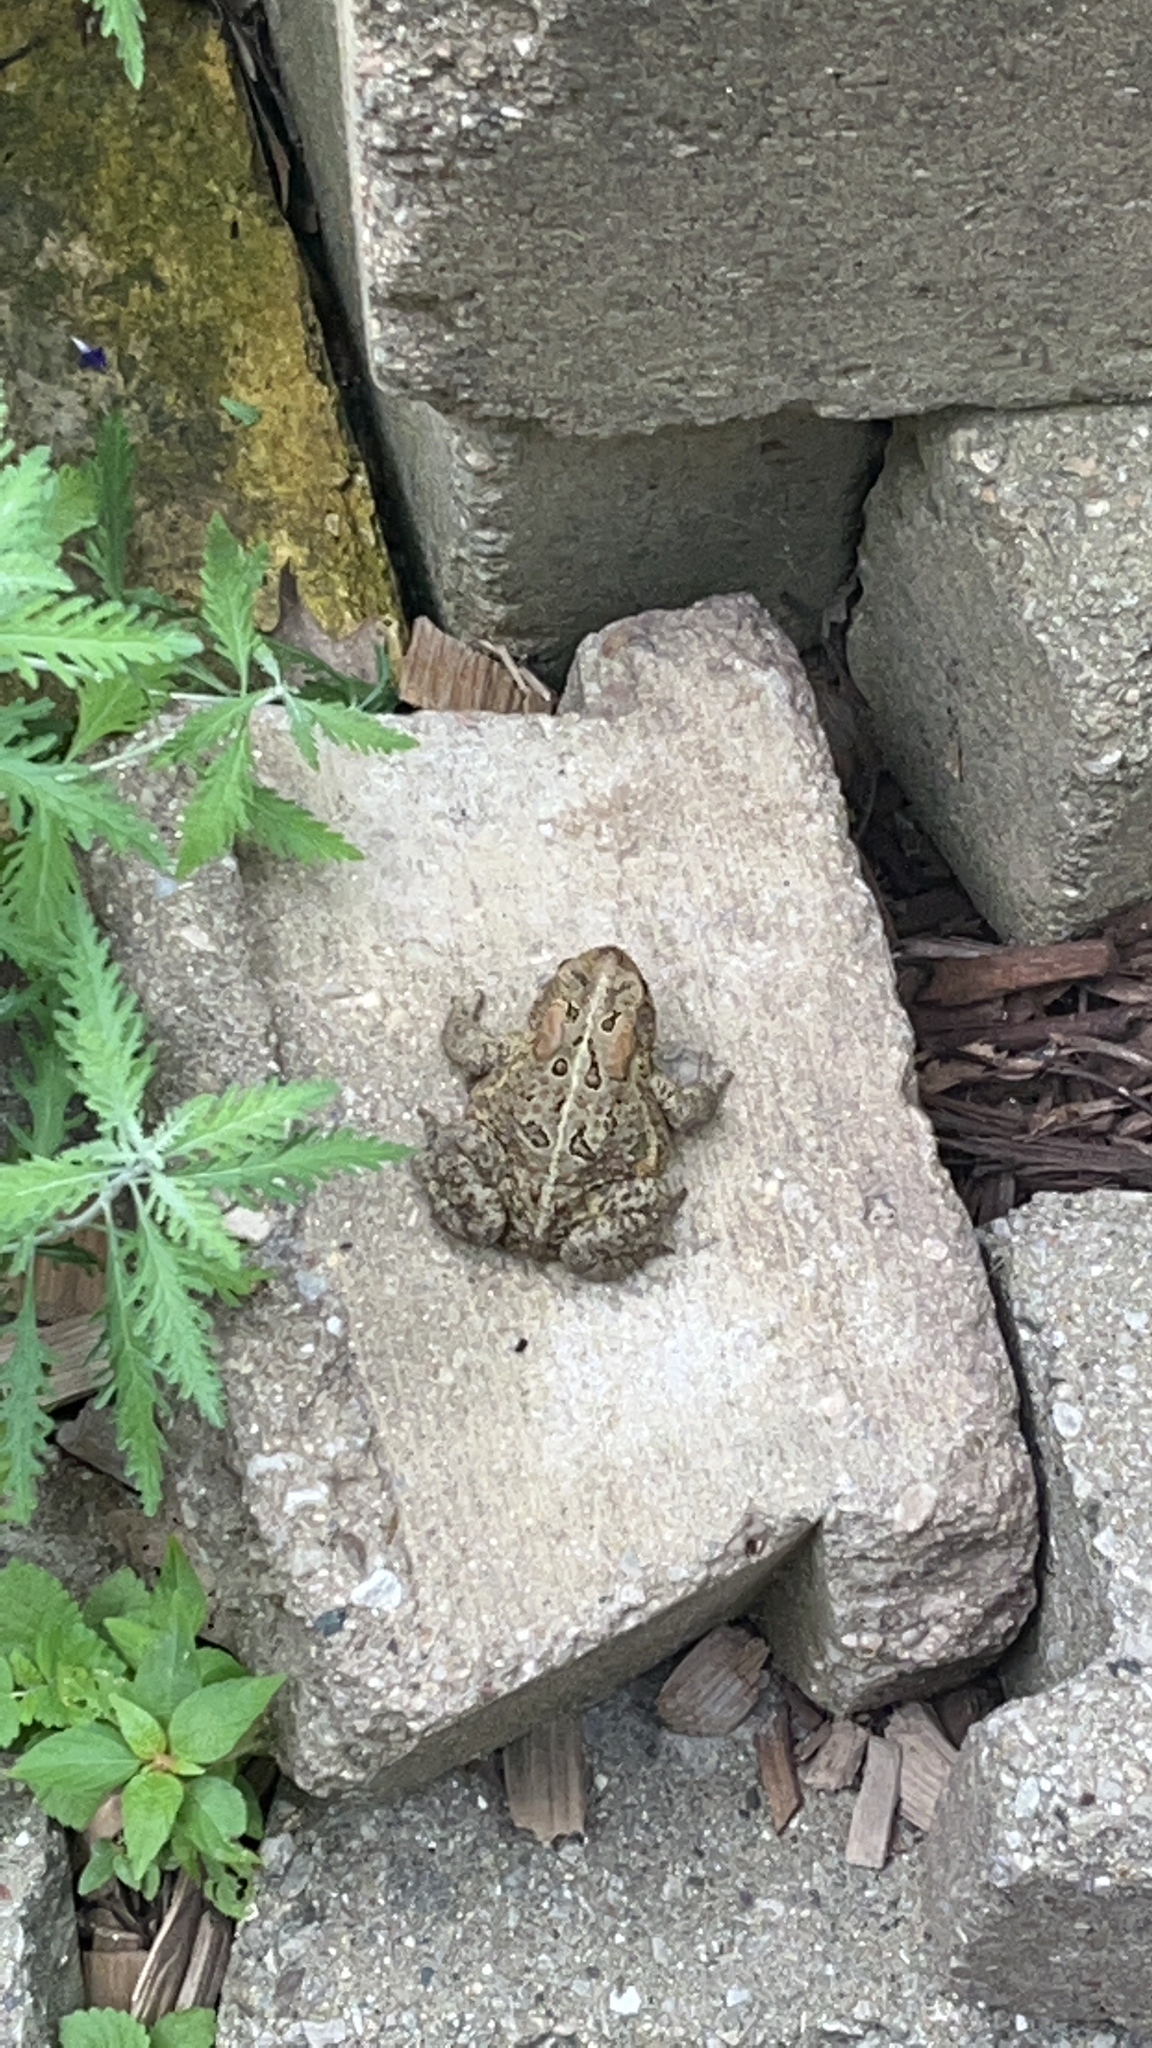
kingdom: Animalia
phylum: Chordata
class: Amphibia
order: Anura
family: Bufonidae
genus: Anaxyrus
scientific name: Anaxyrus americanus
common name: American toad
